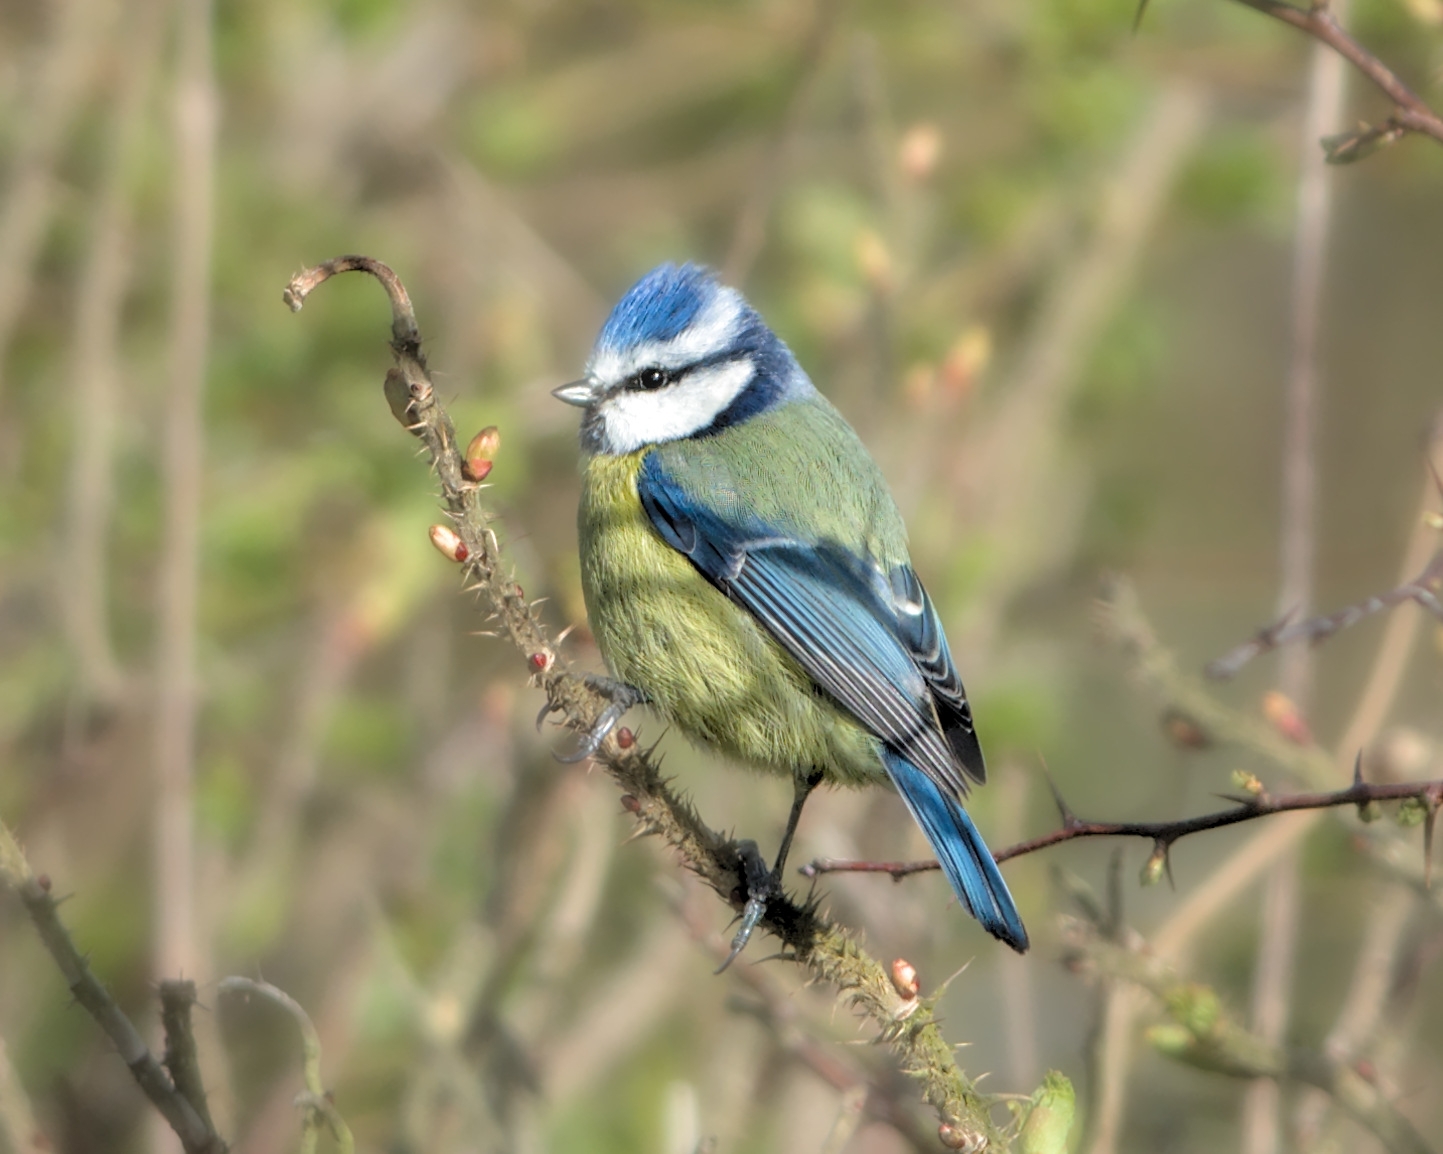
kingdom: Animalia
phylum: Chordata
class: Aves
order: Passeriformes
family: Paridae
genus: Cyanistes
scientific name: Cyanistes caeruleus
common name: Eurasian blue tit
